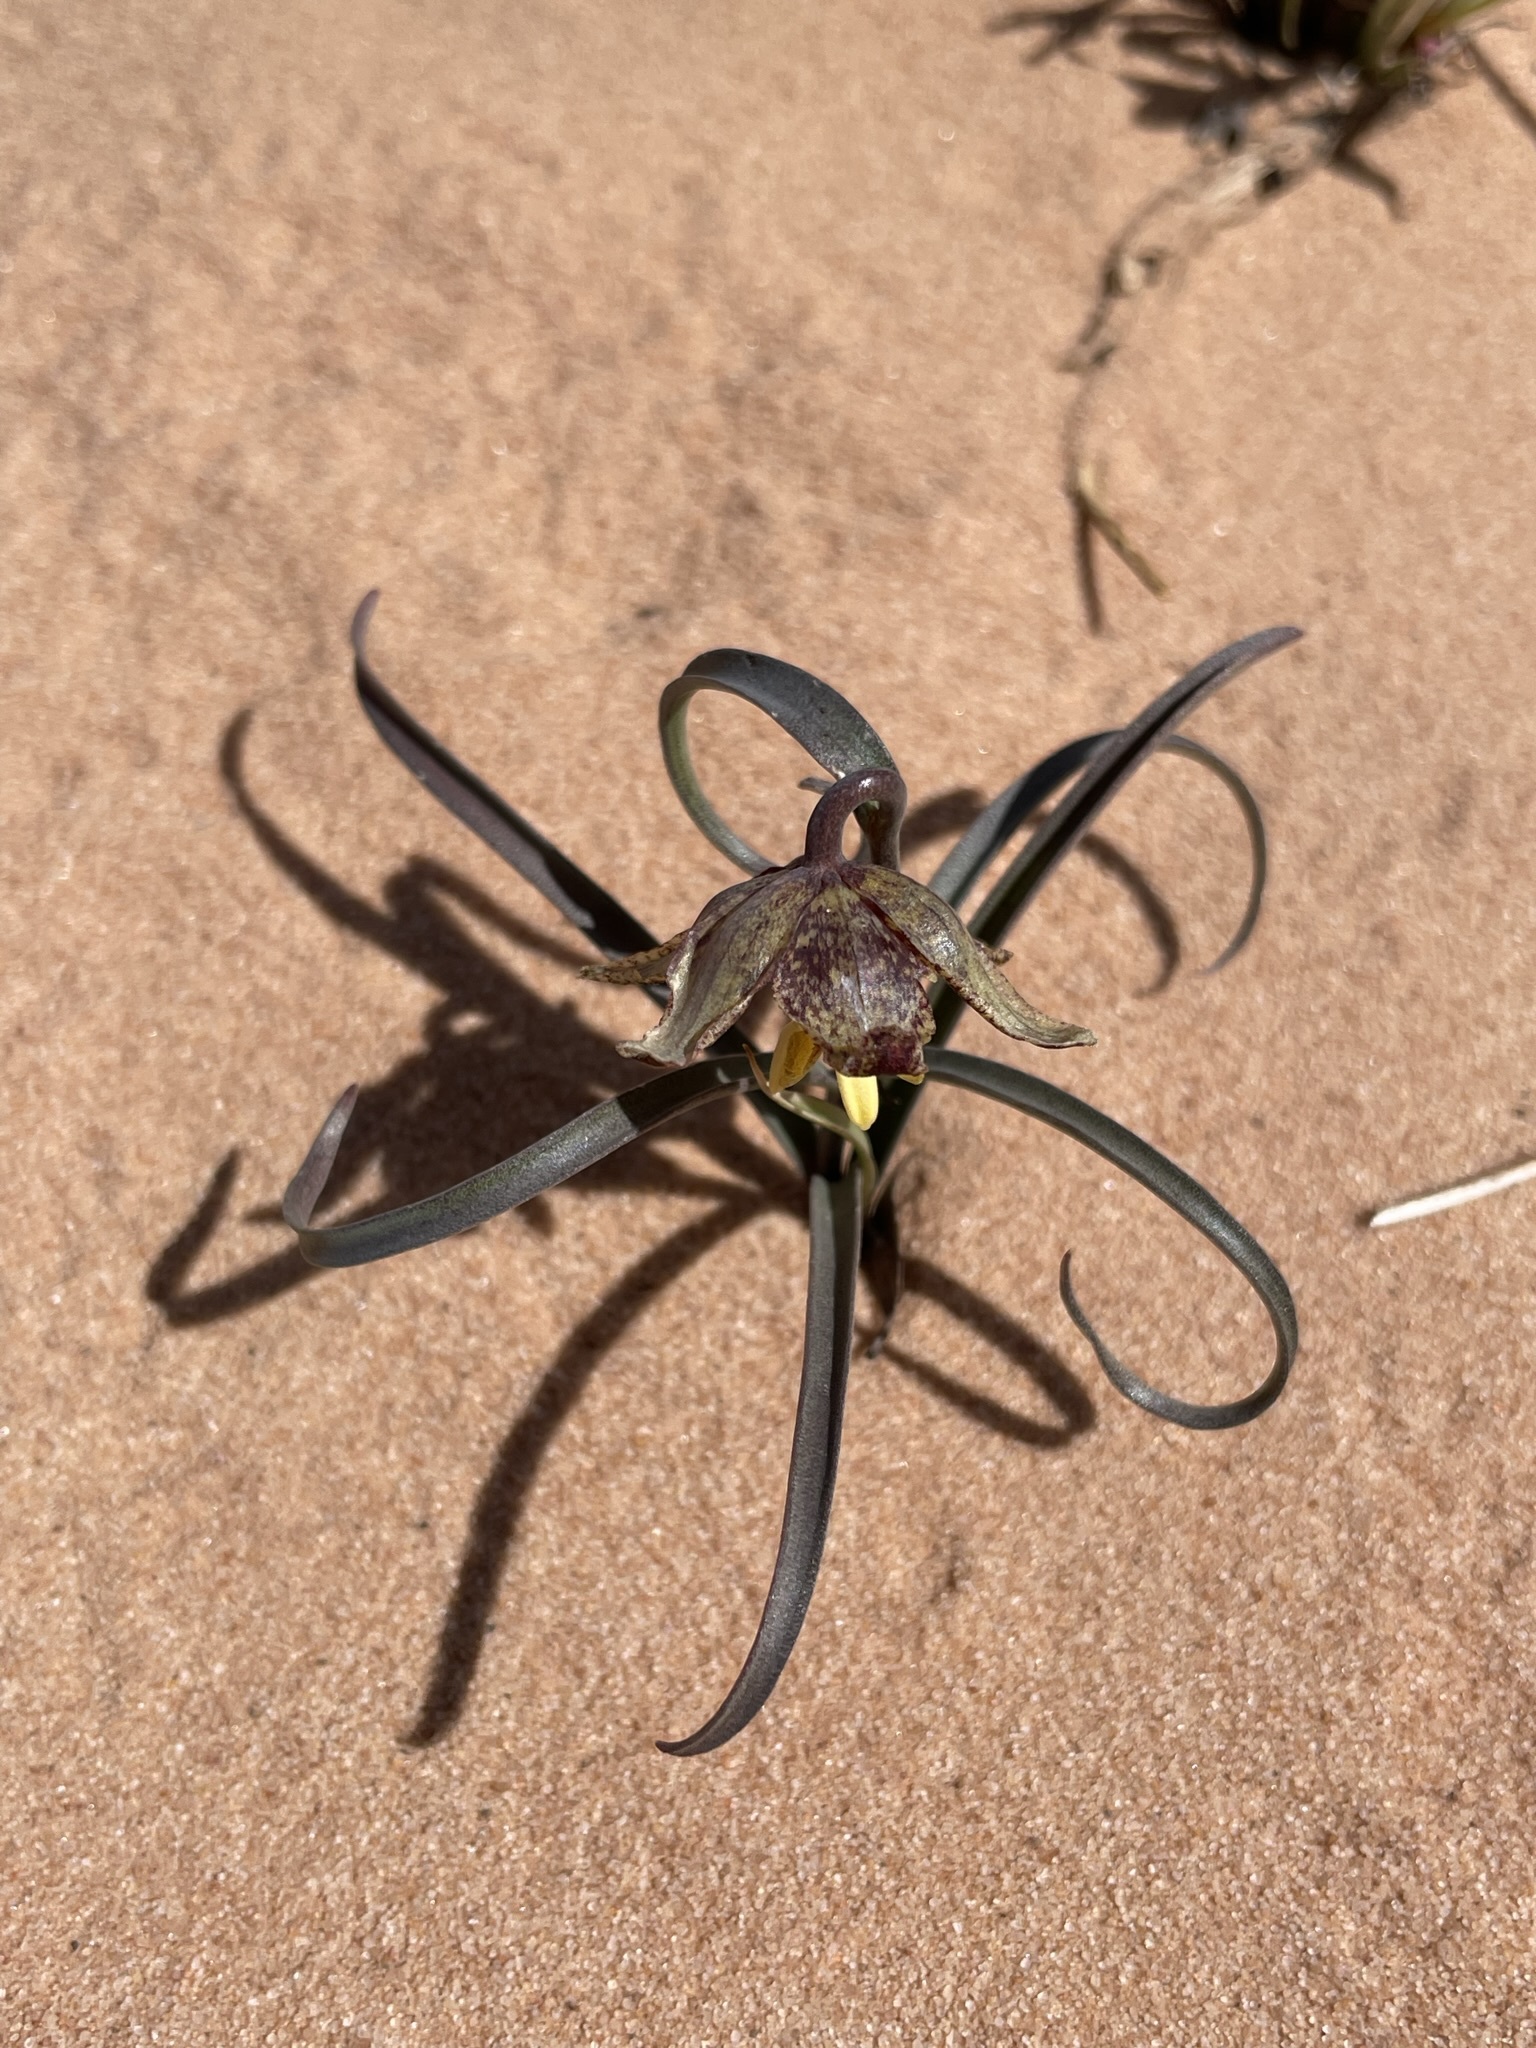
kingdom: Plantae
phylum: Tracheophyta
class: Liliopsida
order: Liliales
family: Liliaceae
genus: Fritillaria
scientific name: Fritillaria atropurpurea
